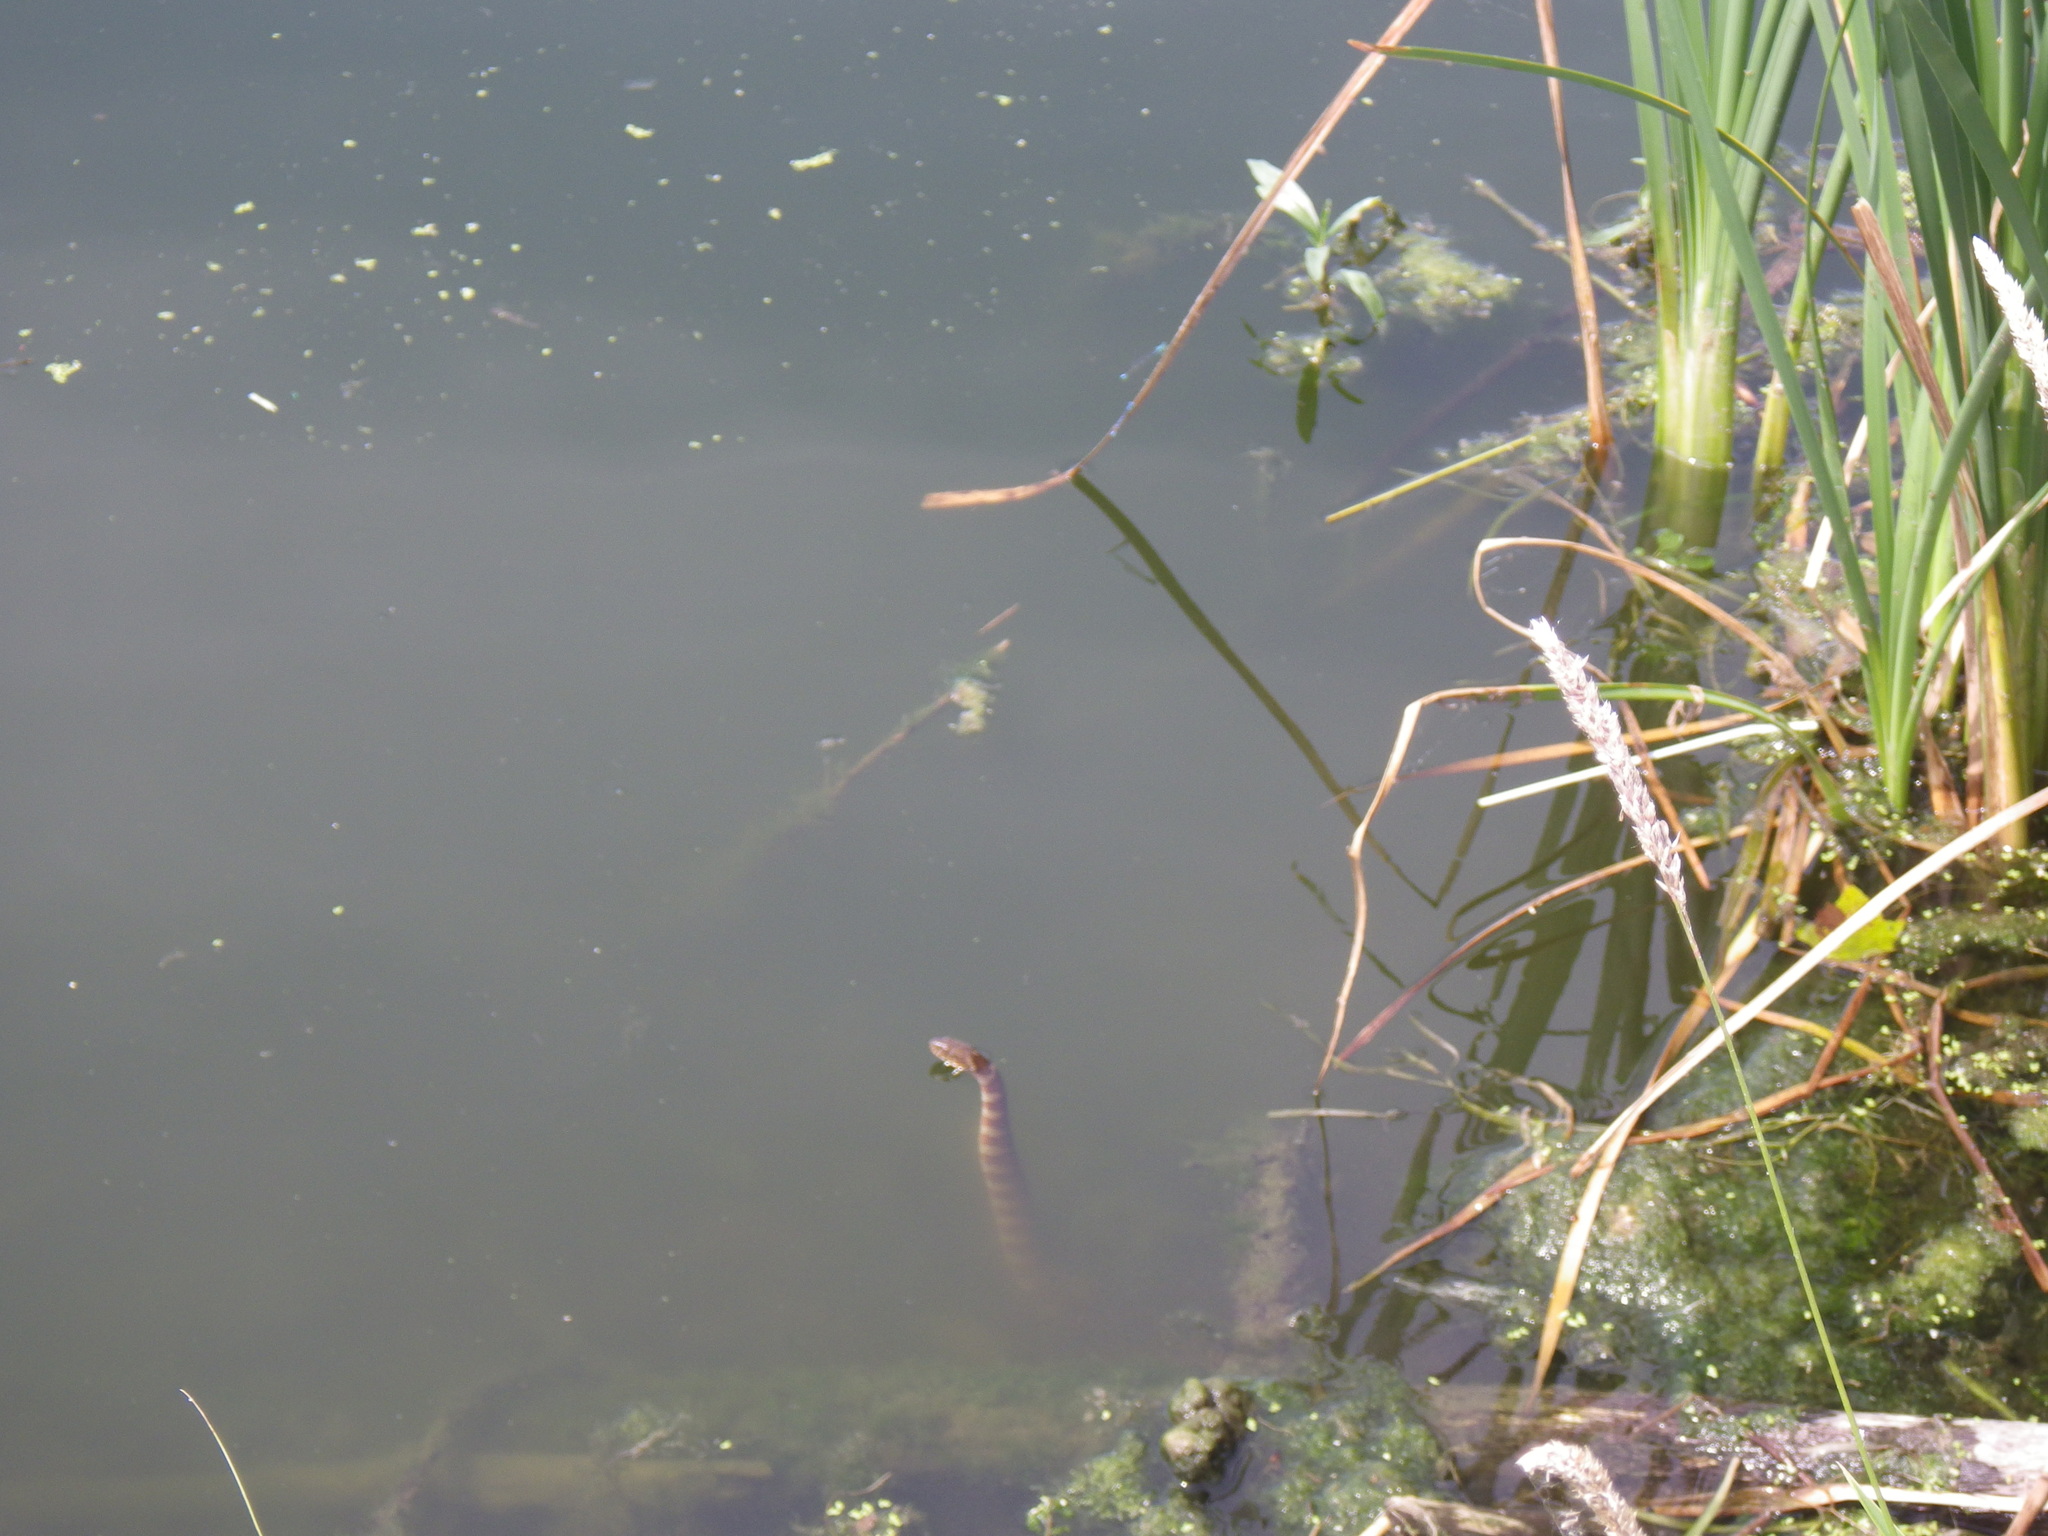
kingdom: Animalia
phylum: Chordata
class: Squamata
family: Colubridae
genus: Nerodia
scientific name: Nerodia sipedon
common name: Northern water snake
